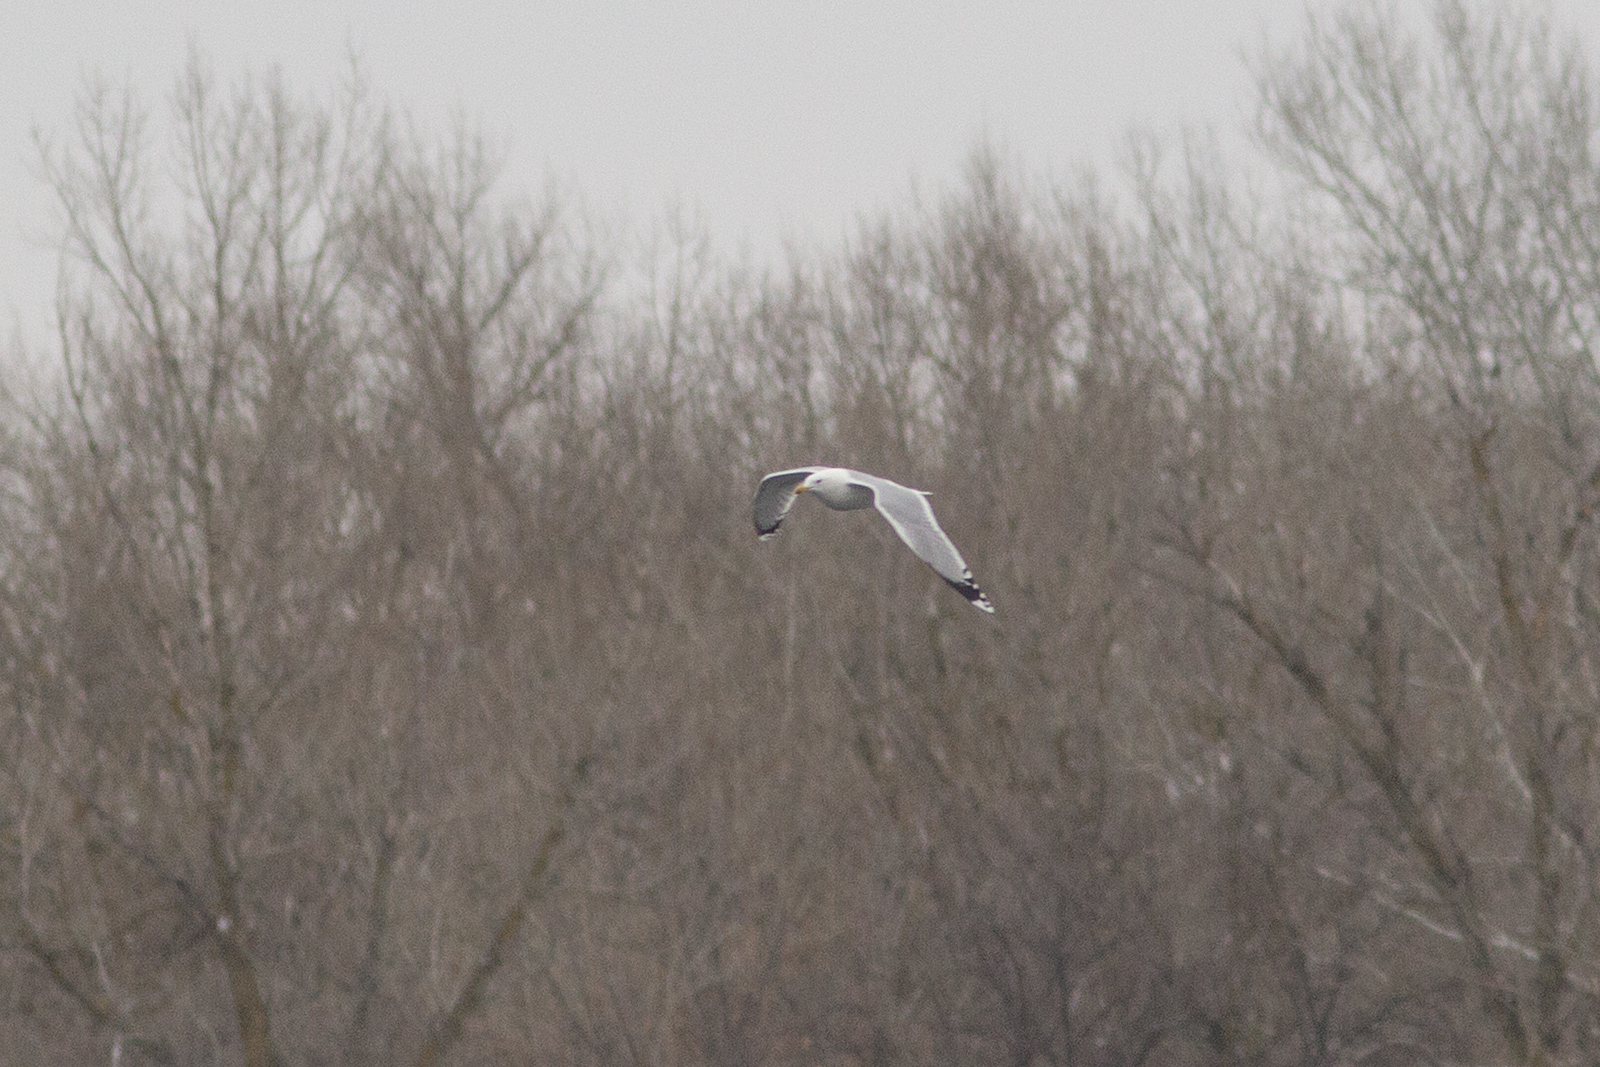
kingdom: Animalia
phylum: Chordata
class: Aves
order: Charadriiformes
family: Laridae
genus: Larus
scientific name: Larus cachinnans
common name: Caspian gull
